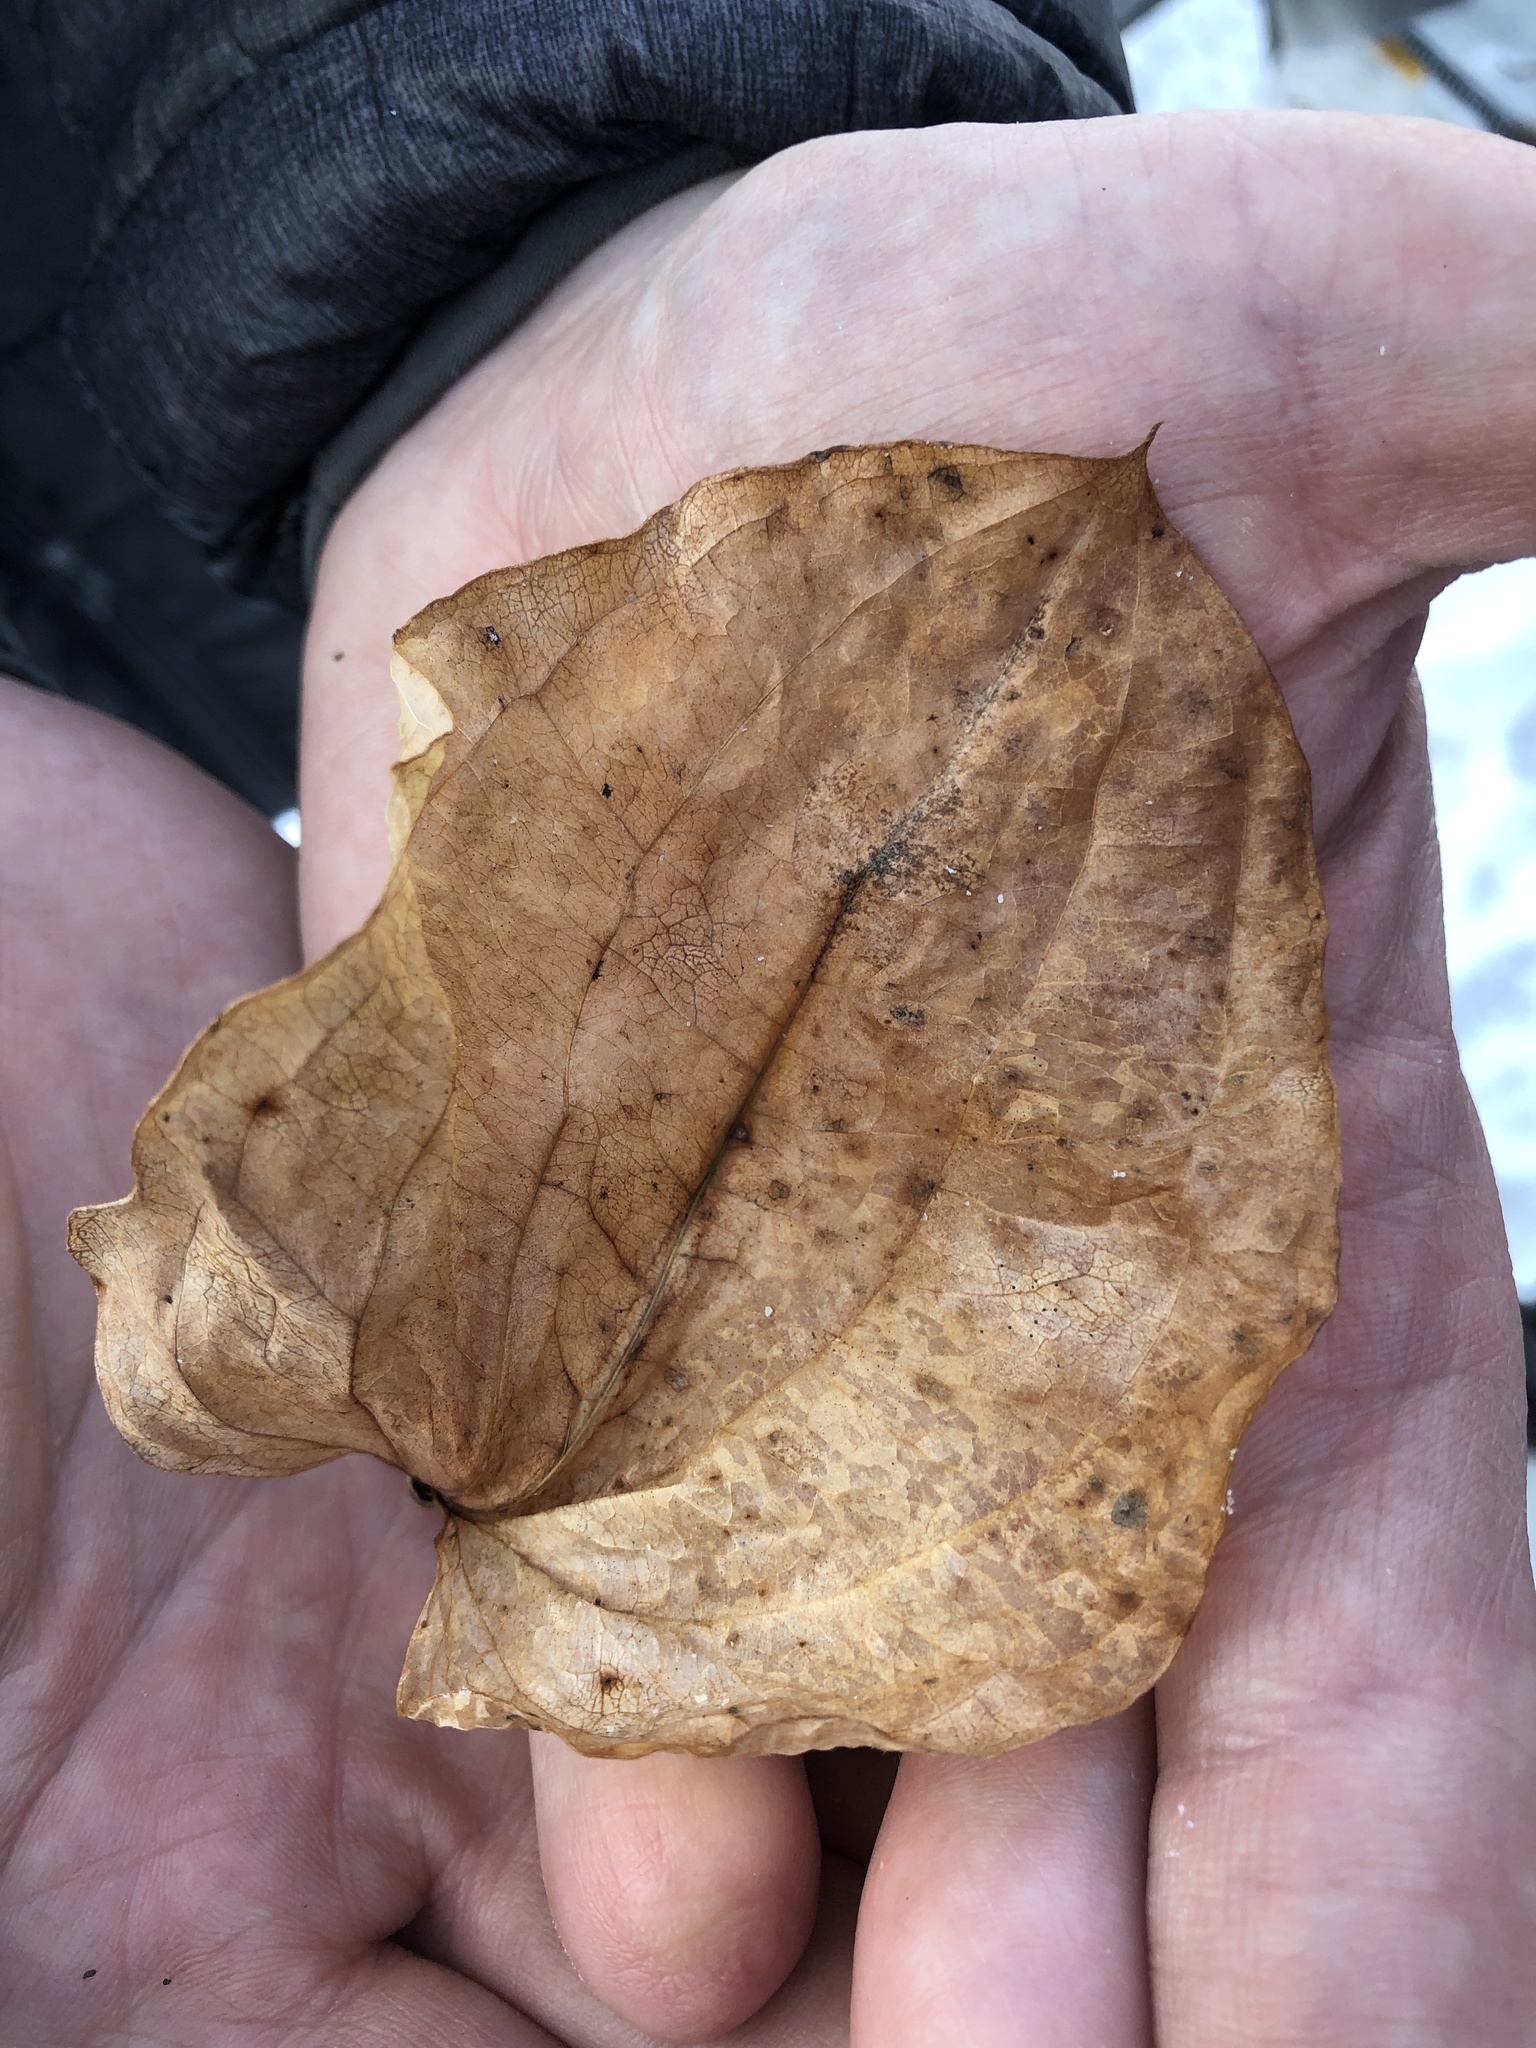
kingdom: Plantae
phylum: Tracheophyta
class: Liliopsida
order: Liliales
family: Smilacaceae
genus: Smilax
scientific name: Smilax lasioneura
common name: Blue ridge carrionflower
